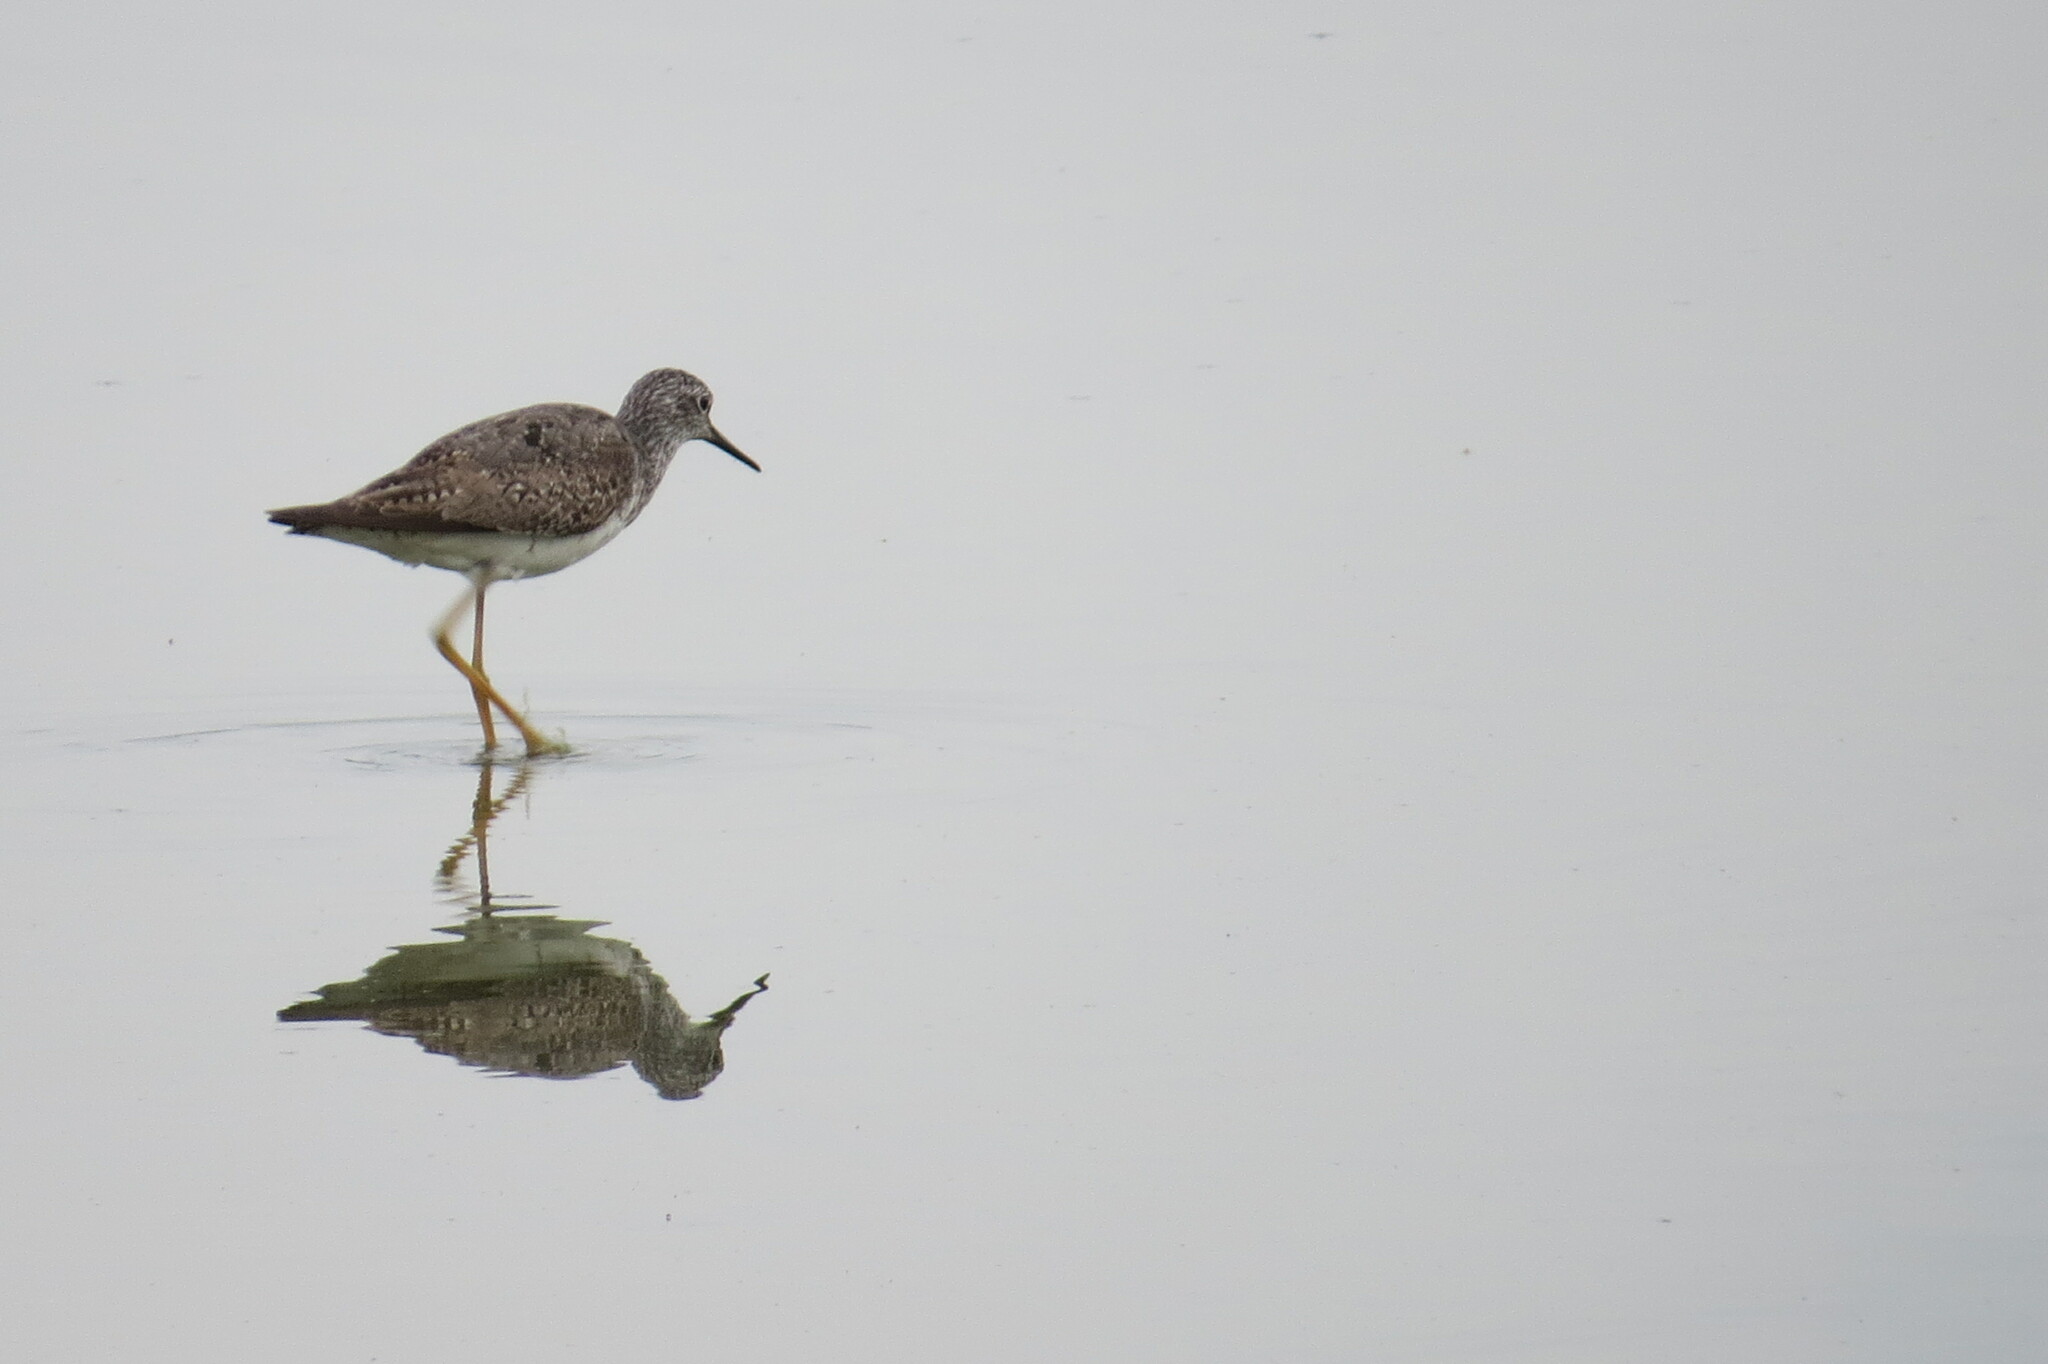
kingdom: Animalia
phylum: Chordata
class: Aves
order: Charadriiformes
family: Scolopacidae
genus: Tringa
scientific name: Tringa flavipes
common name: Lesser yellowlegs
